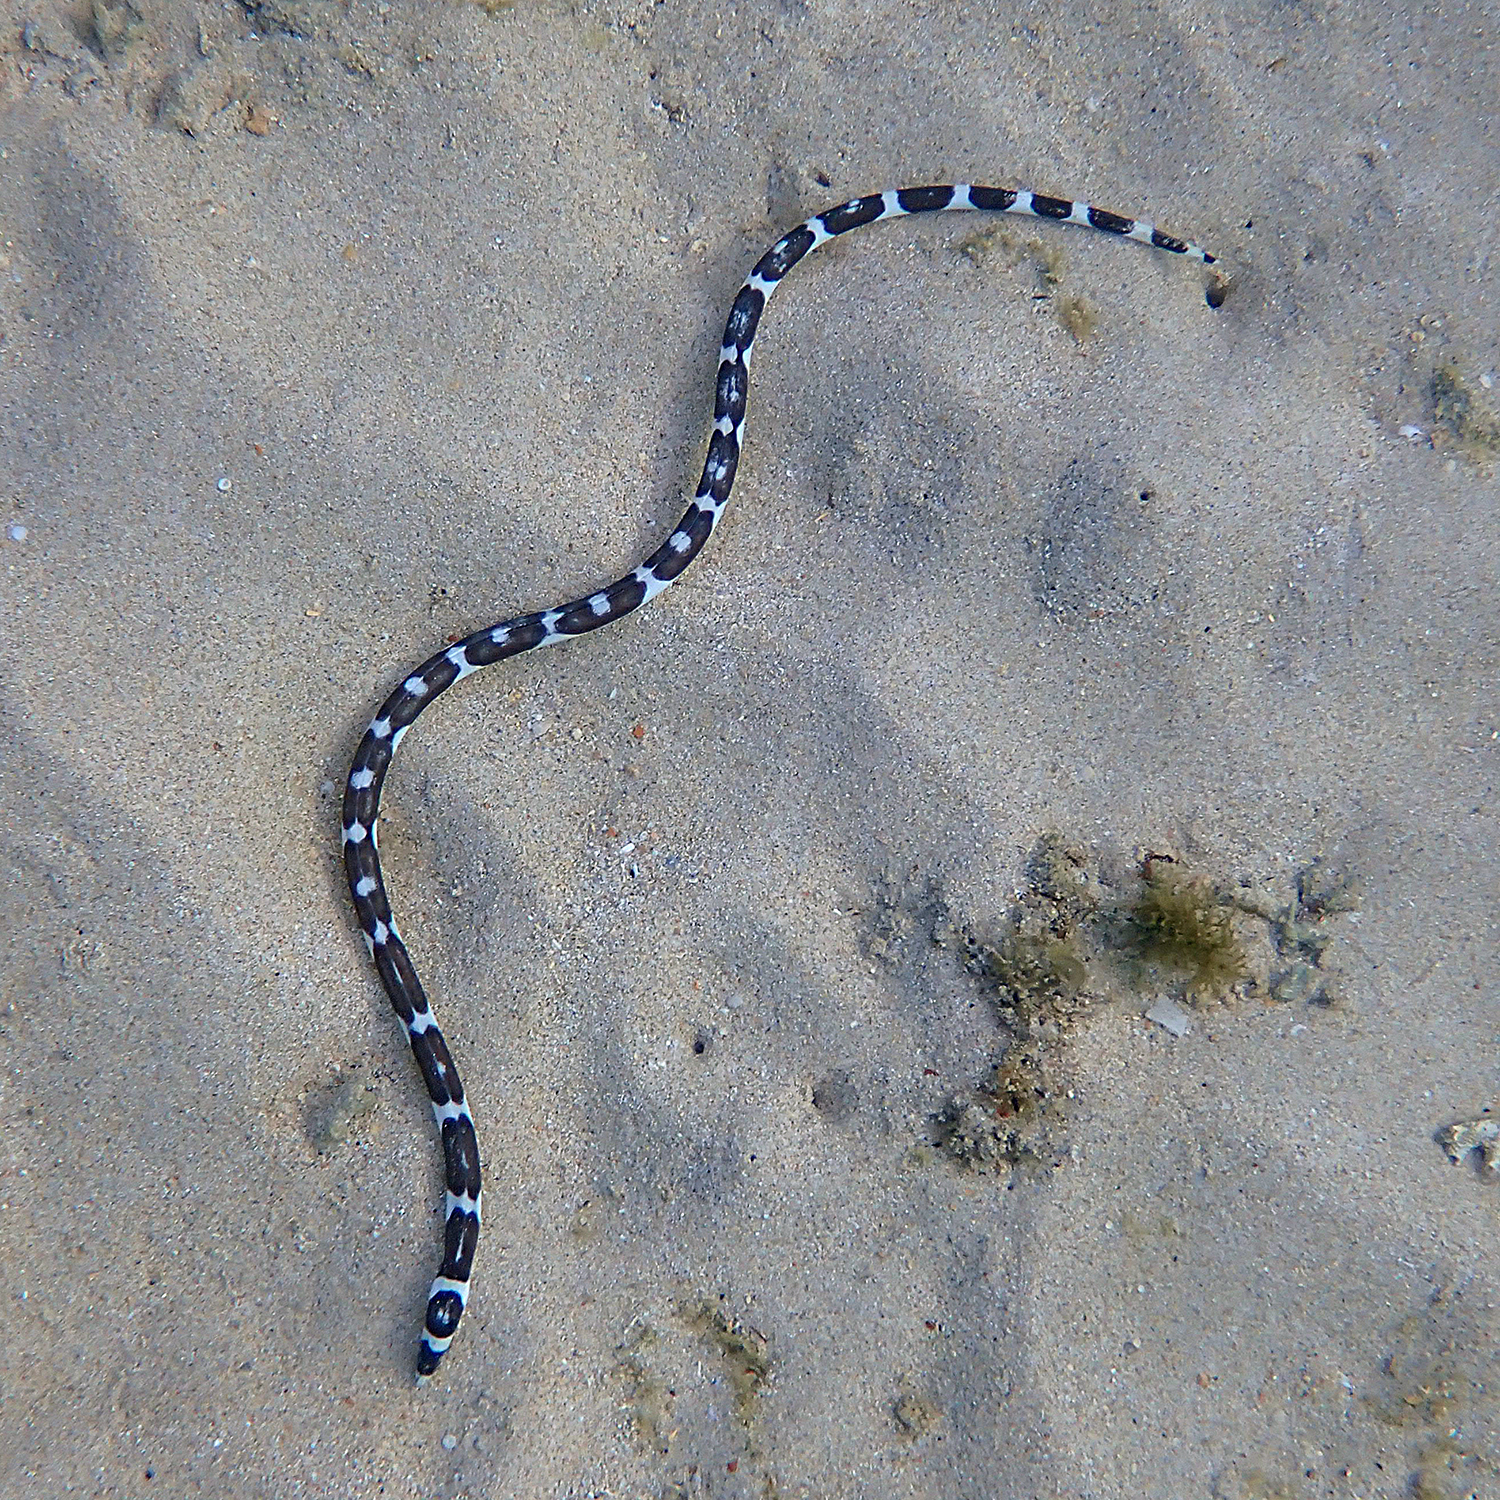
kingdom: Animalia
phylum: Chordata
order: Anguilliformes
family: Ophichthidae
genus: Leiuranus
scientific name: Leiuranus versicolor
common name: Convict snake eel
